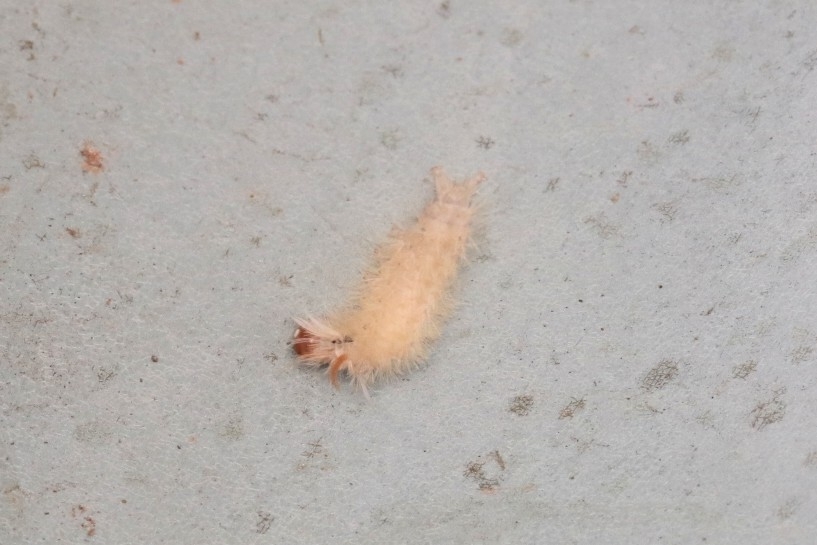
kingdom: Animalia
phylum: Arthropoda
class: Insecta
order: Lepidoptera
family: Erebidae
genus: Halysidota
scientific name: Halysidota harrisii
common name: Sycamore tussock moth
